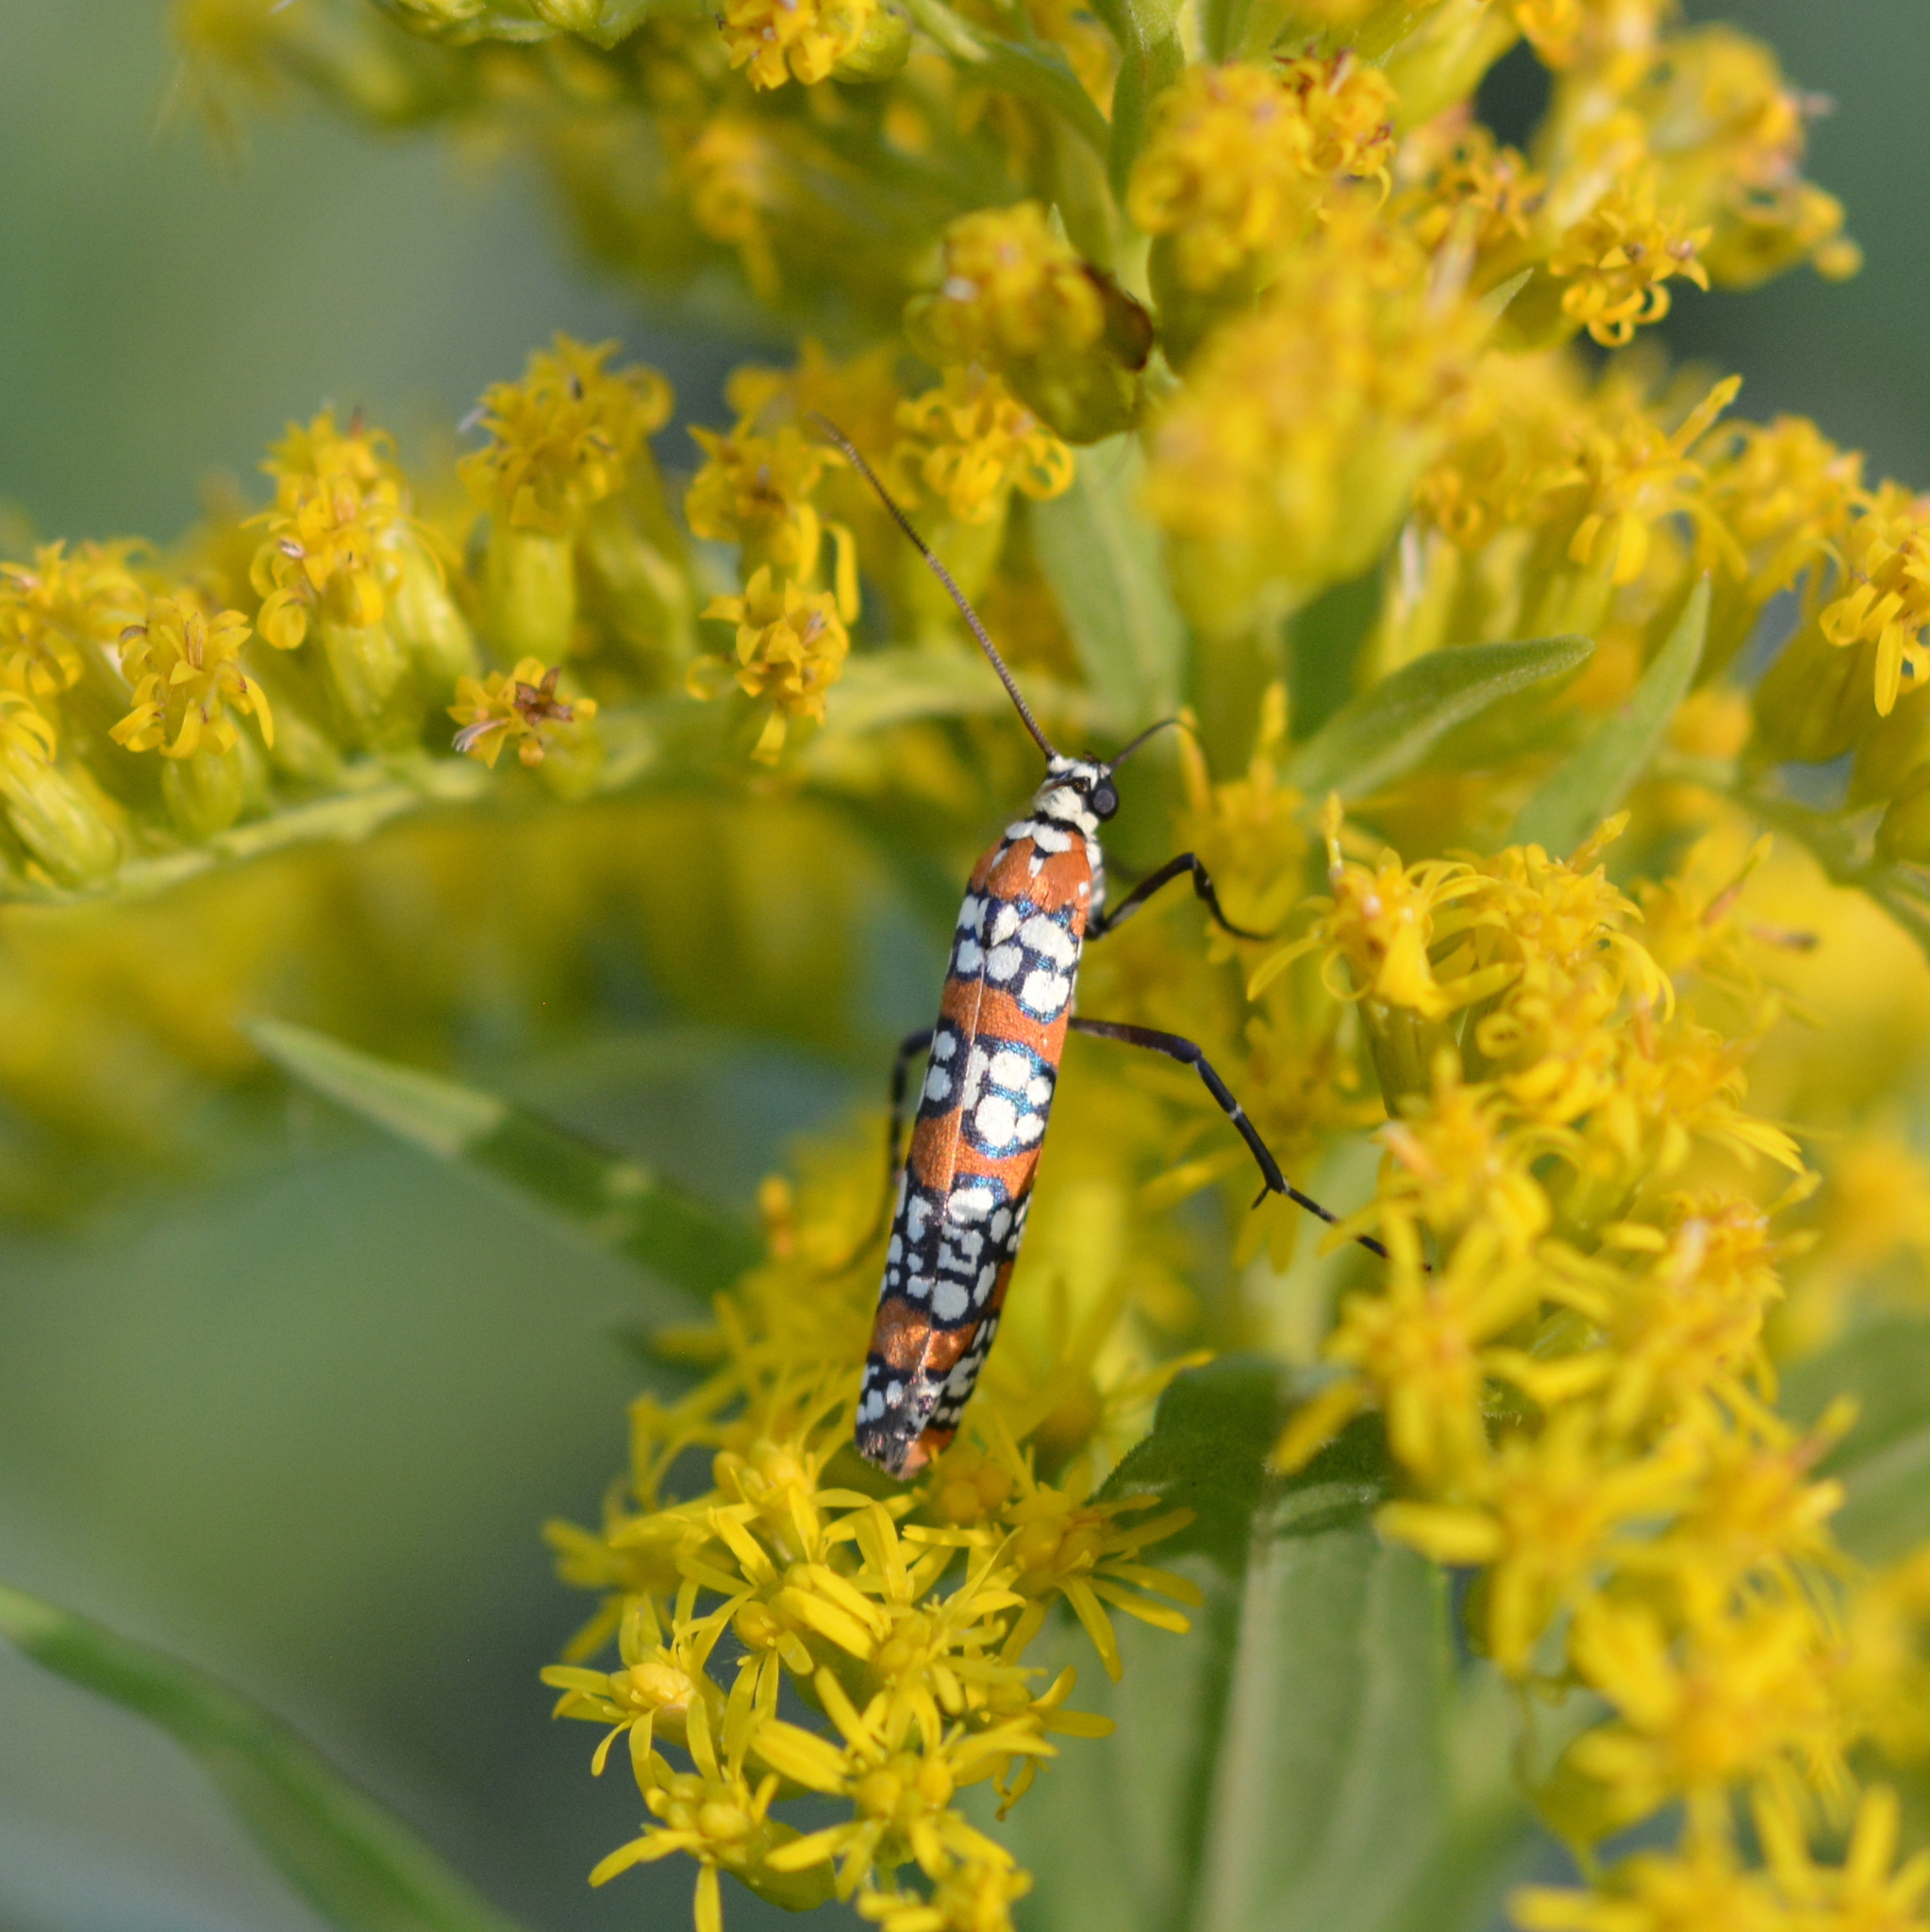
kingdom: Animalia
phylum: Arthropoda
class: Insecta
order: Lepidoptera
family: Attevidae
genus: Atteva
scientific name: Atteva punctella
